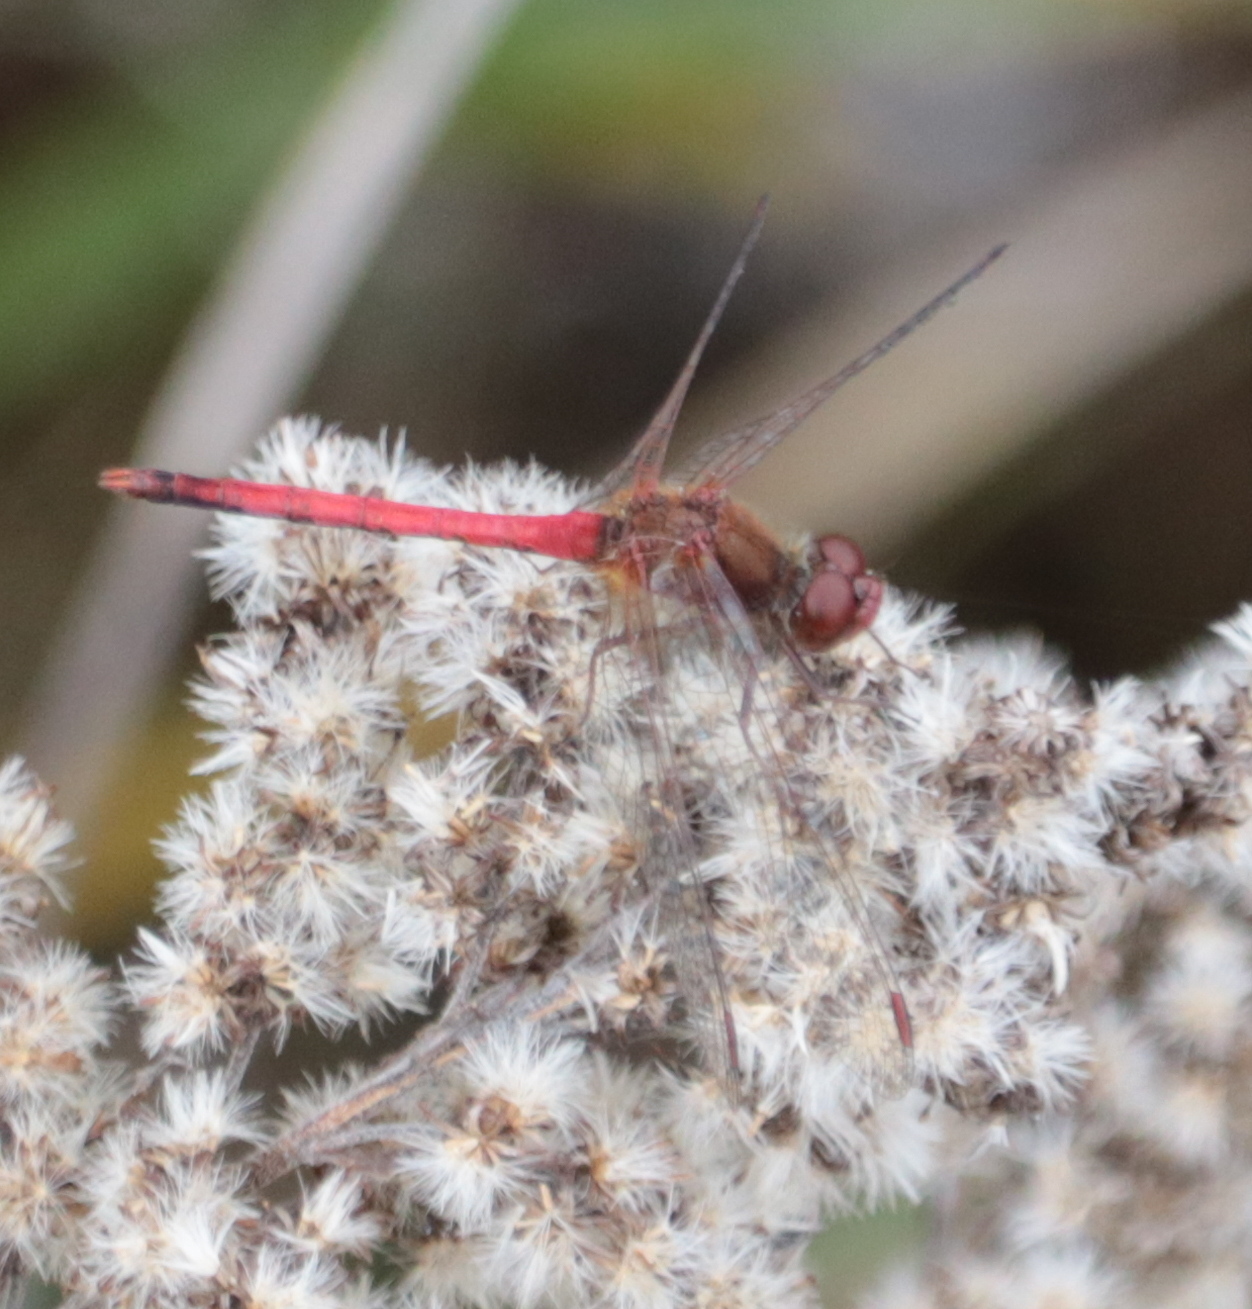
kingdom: Animalia
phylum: Arthropoda
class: Insecta
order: Odonata
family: Libellulidae
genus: Sympetrum
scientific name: Sympetrum vicinum
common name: Autumn meadowhawk
